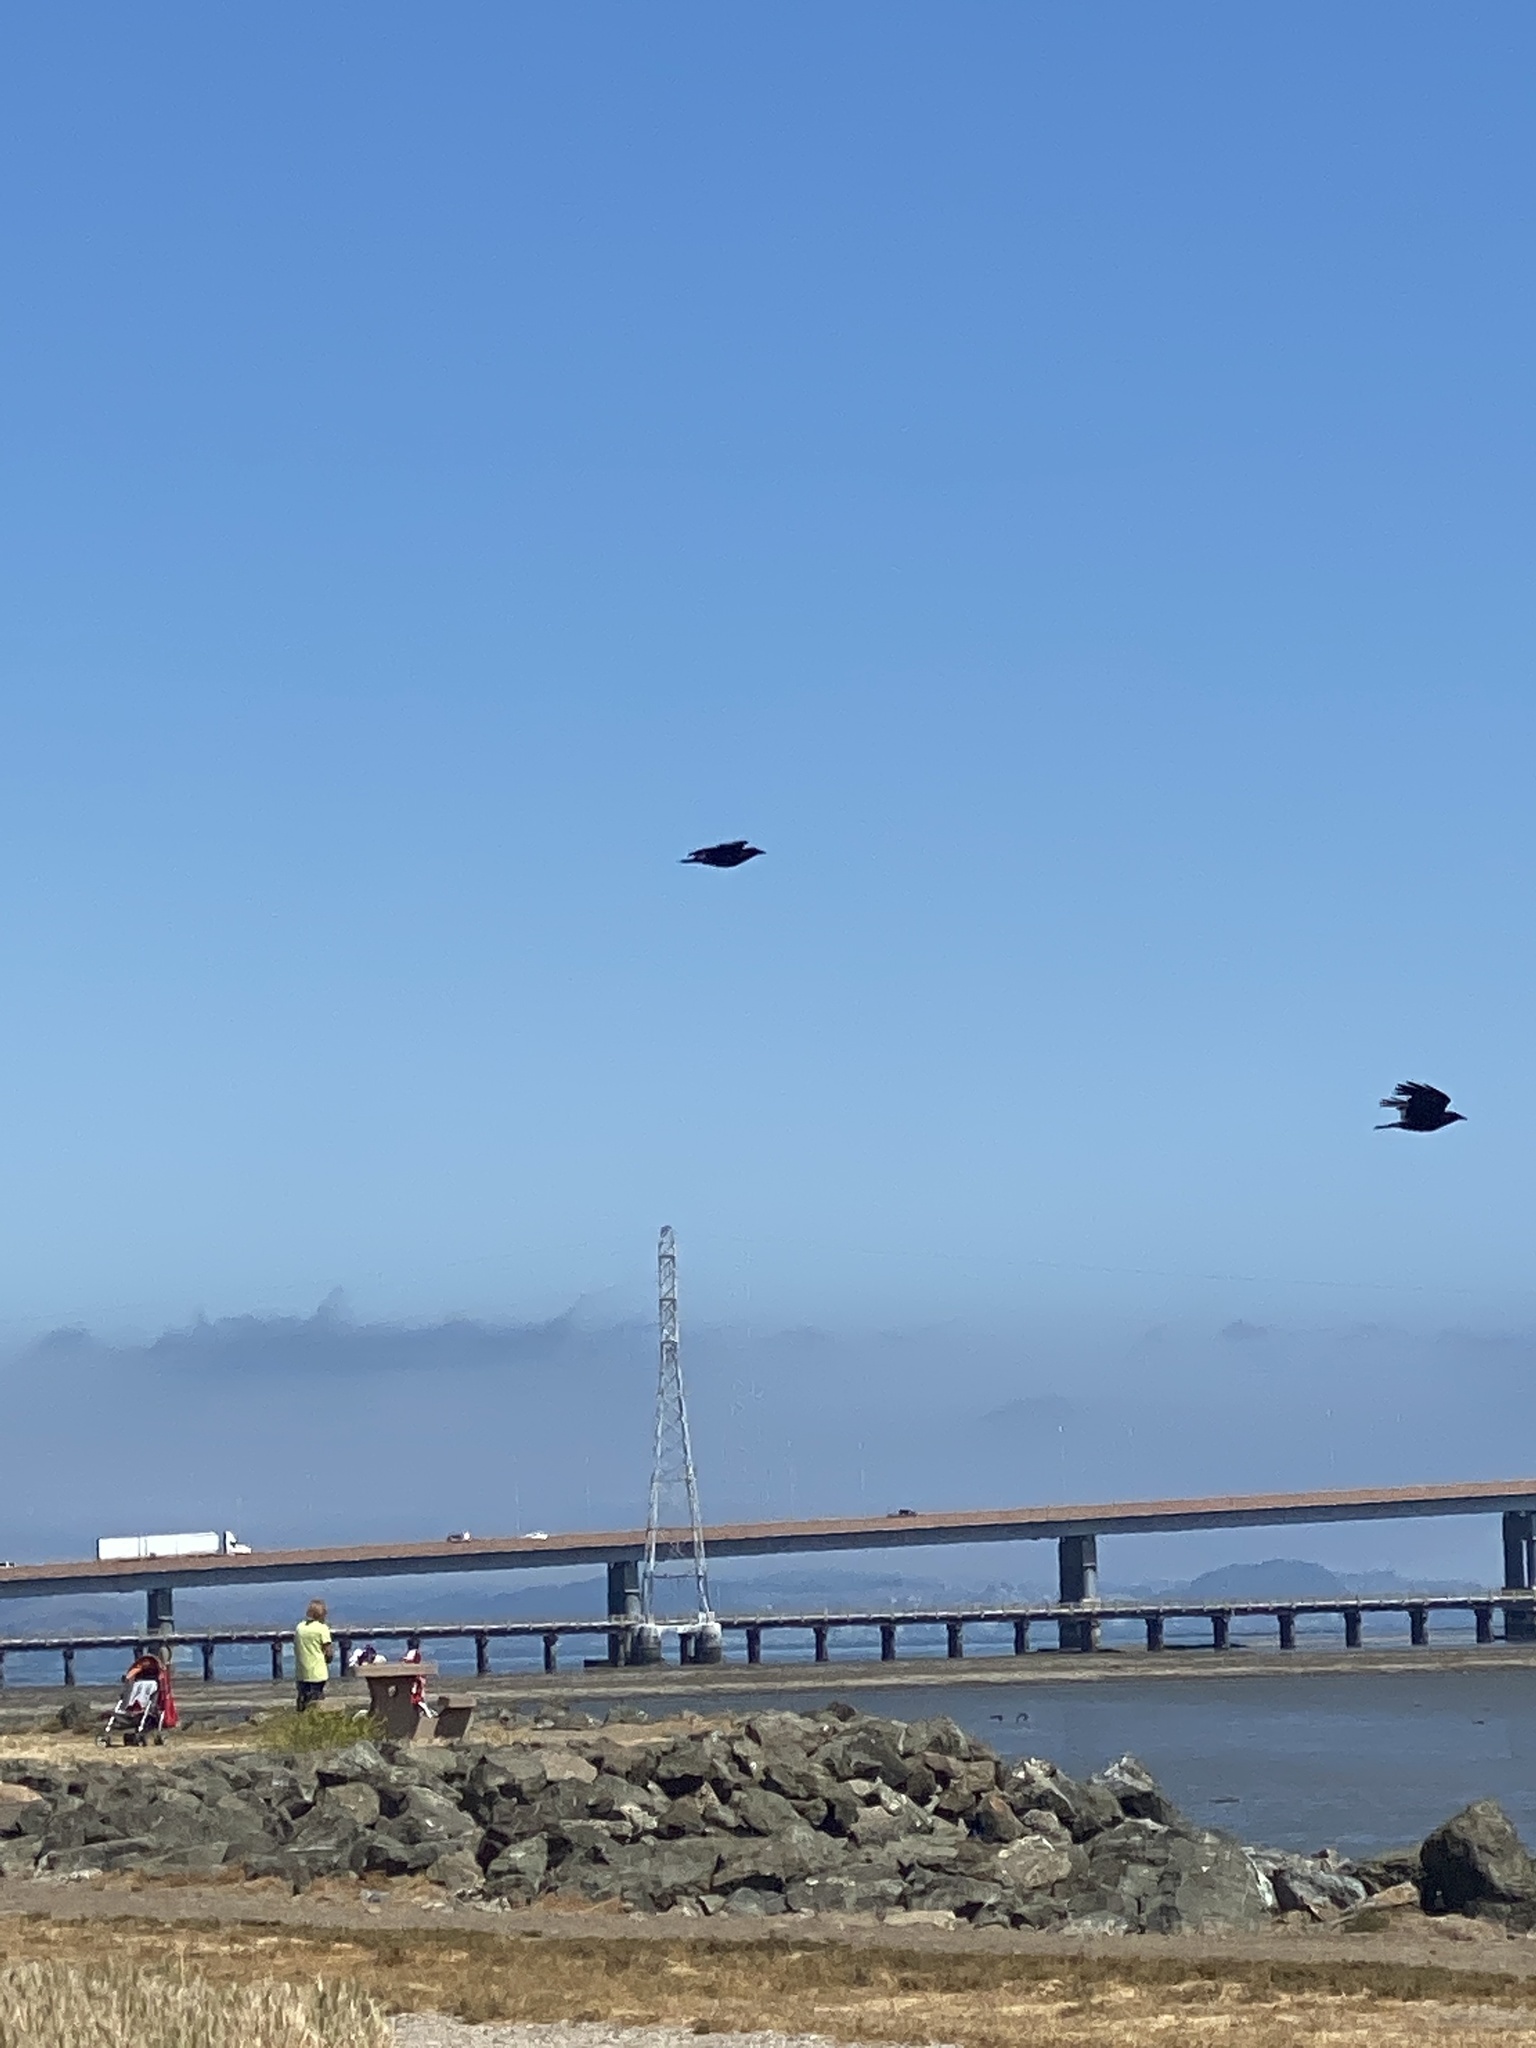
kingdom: Animalia
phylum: Chordata
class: Aves
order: Passeriformes
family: Corvidae
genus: Corvus
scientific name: Corvus brachyrhynchos
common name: American crow
